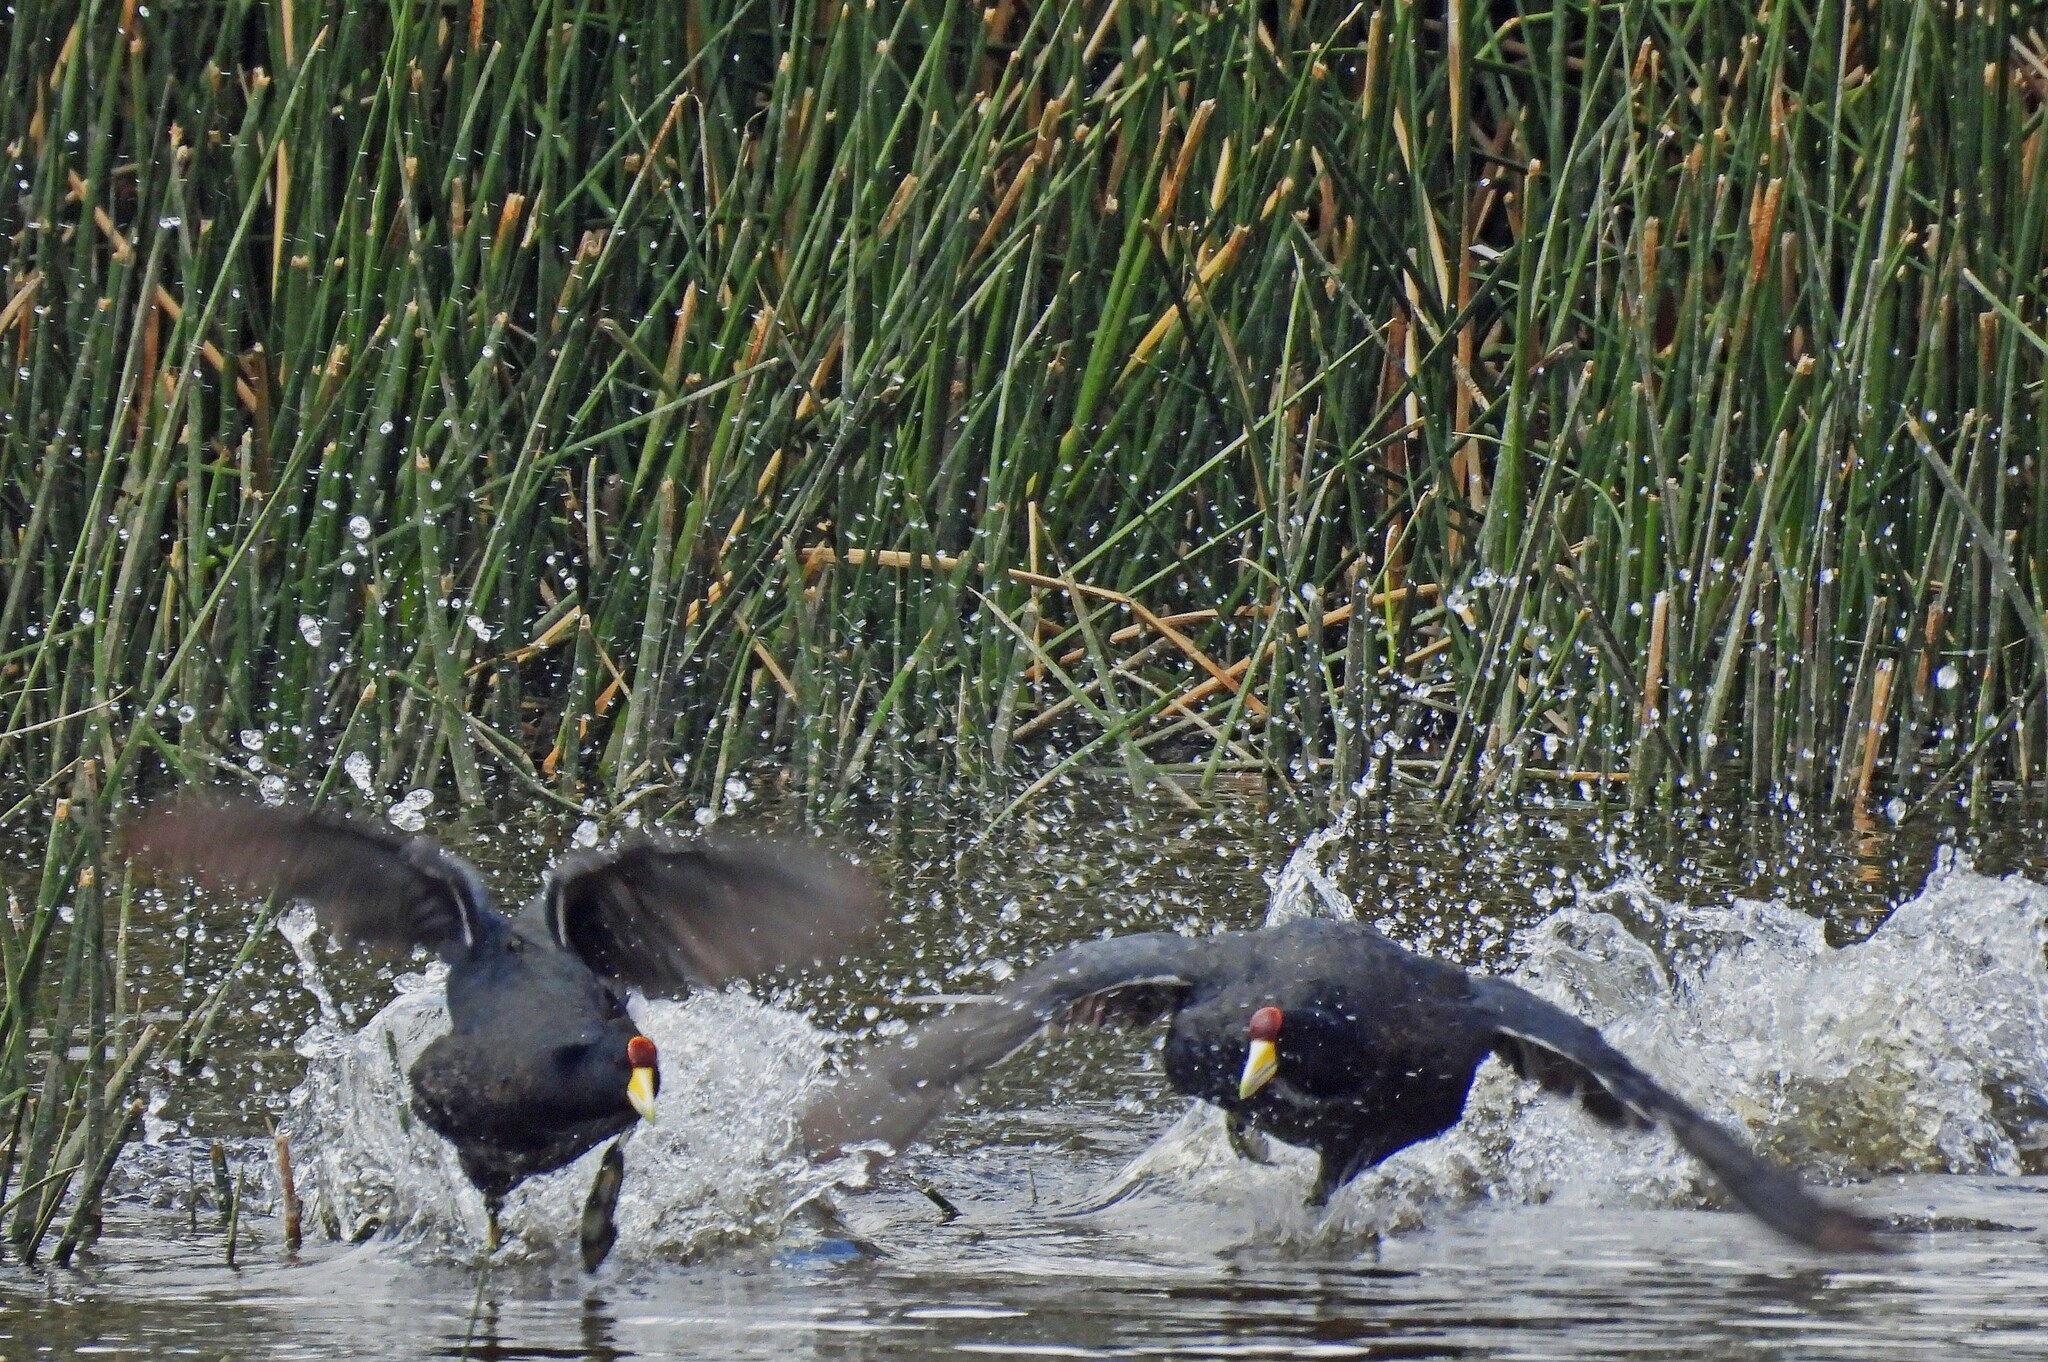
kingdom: Animalia
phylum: Chordata
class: Aves
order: Gruiformes
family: Rallidae
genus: Fulica
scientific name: Fulica ardesiaca
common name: Andean coot
